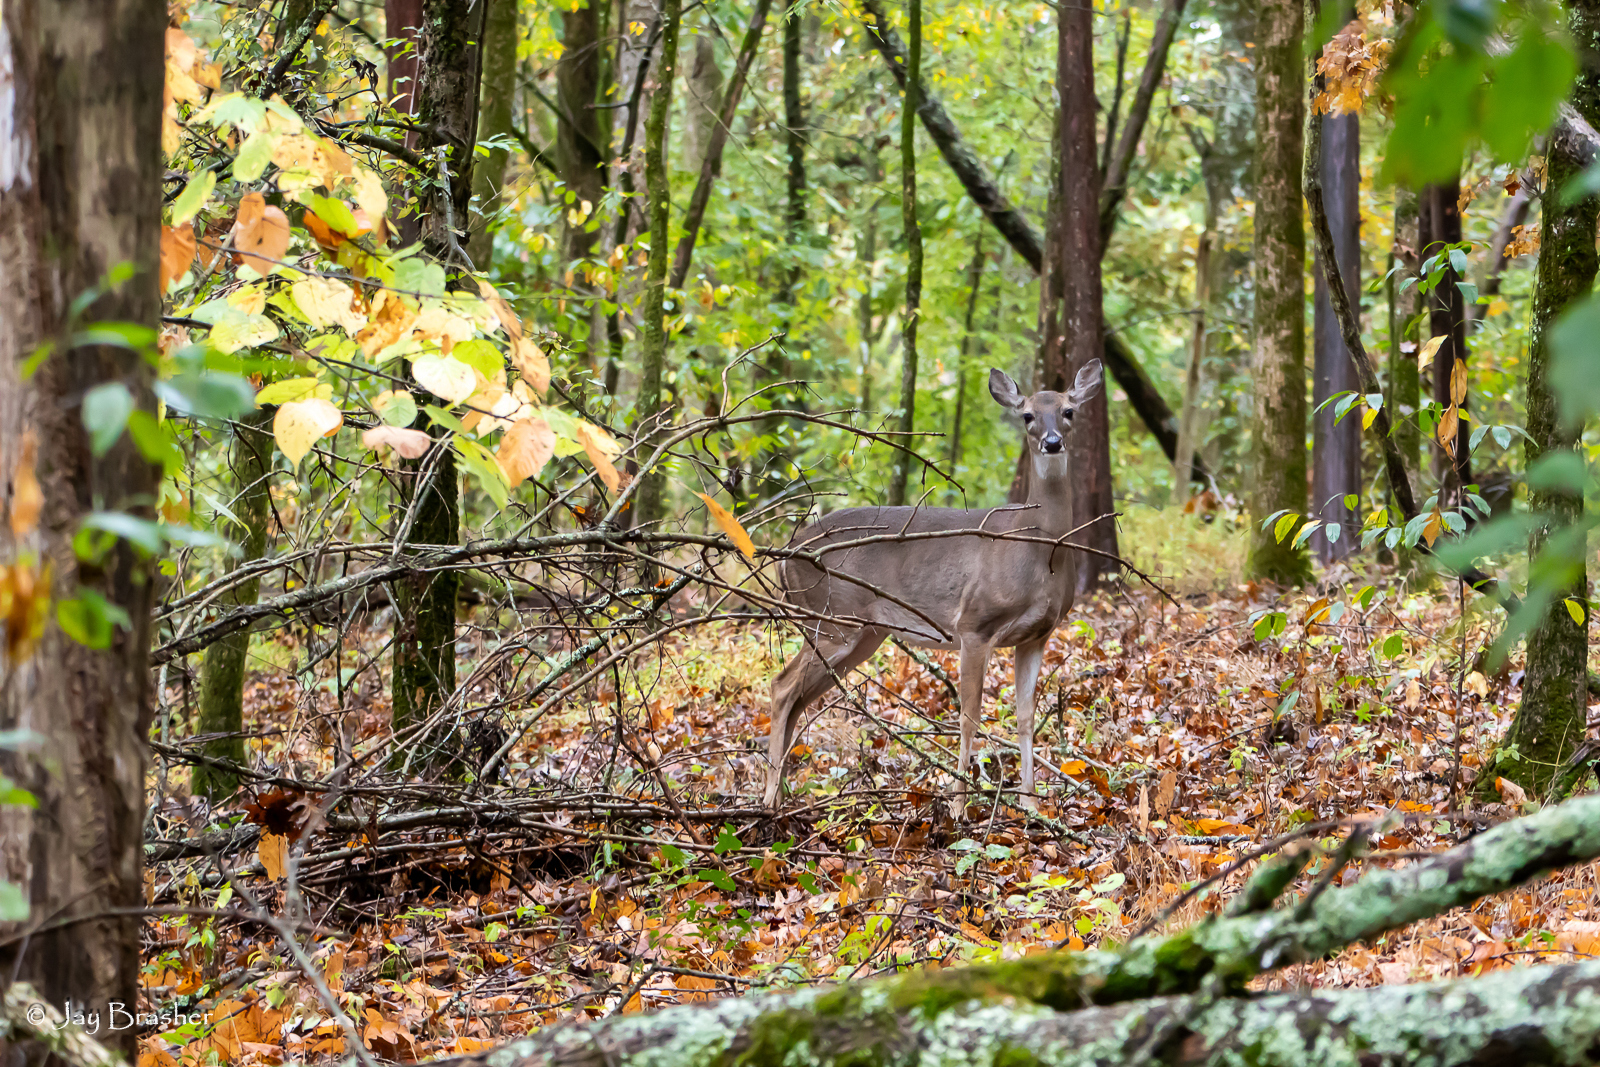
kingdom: Animalia
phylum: Chordata
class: Mammalia
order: Artiodactyla
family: Cervidae
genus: Odocoileus
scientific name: Odocoileus virginianus
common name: White-tailed deer
